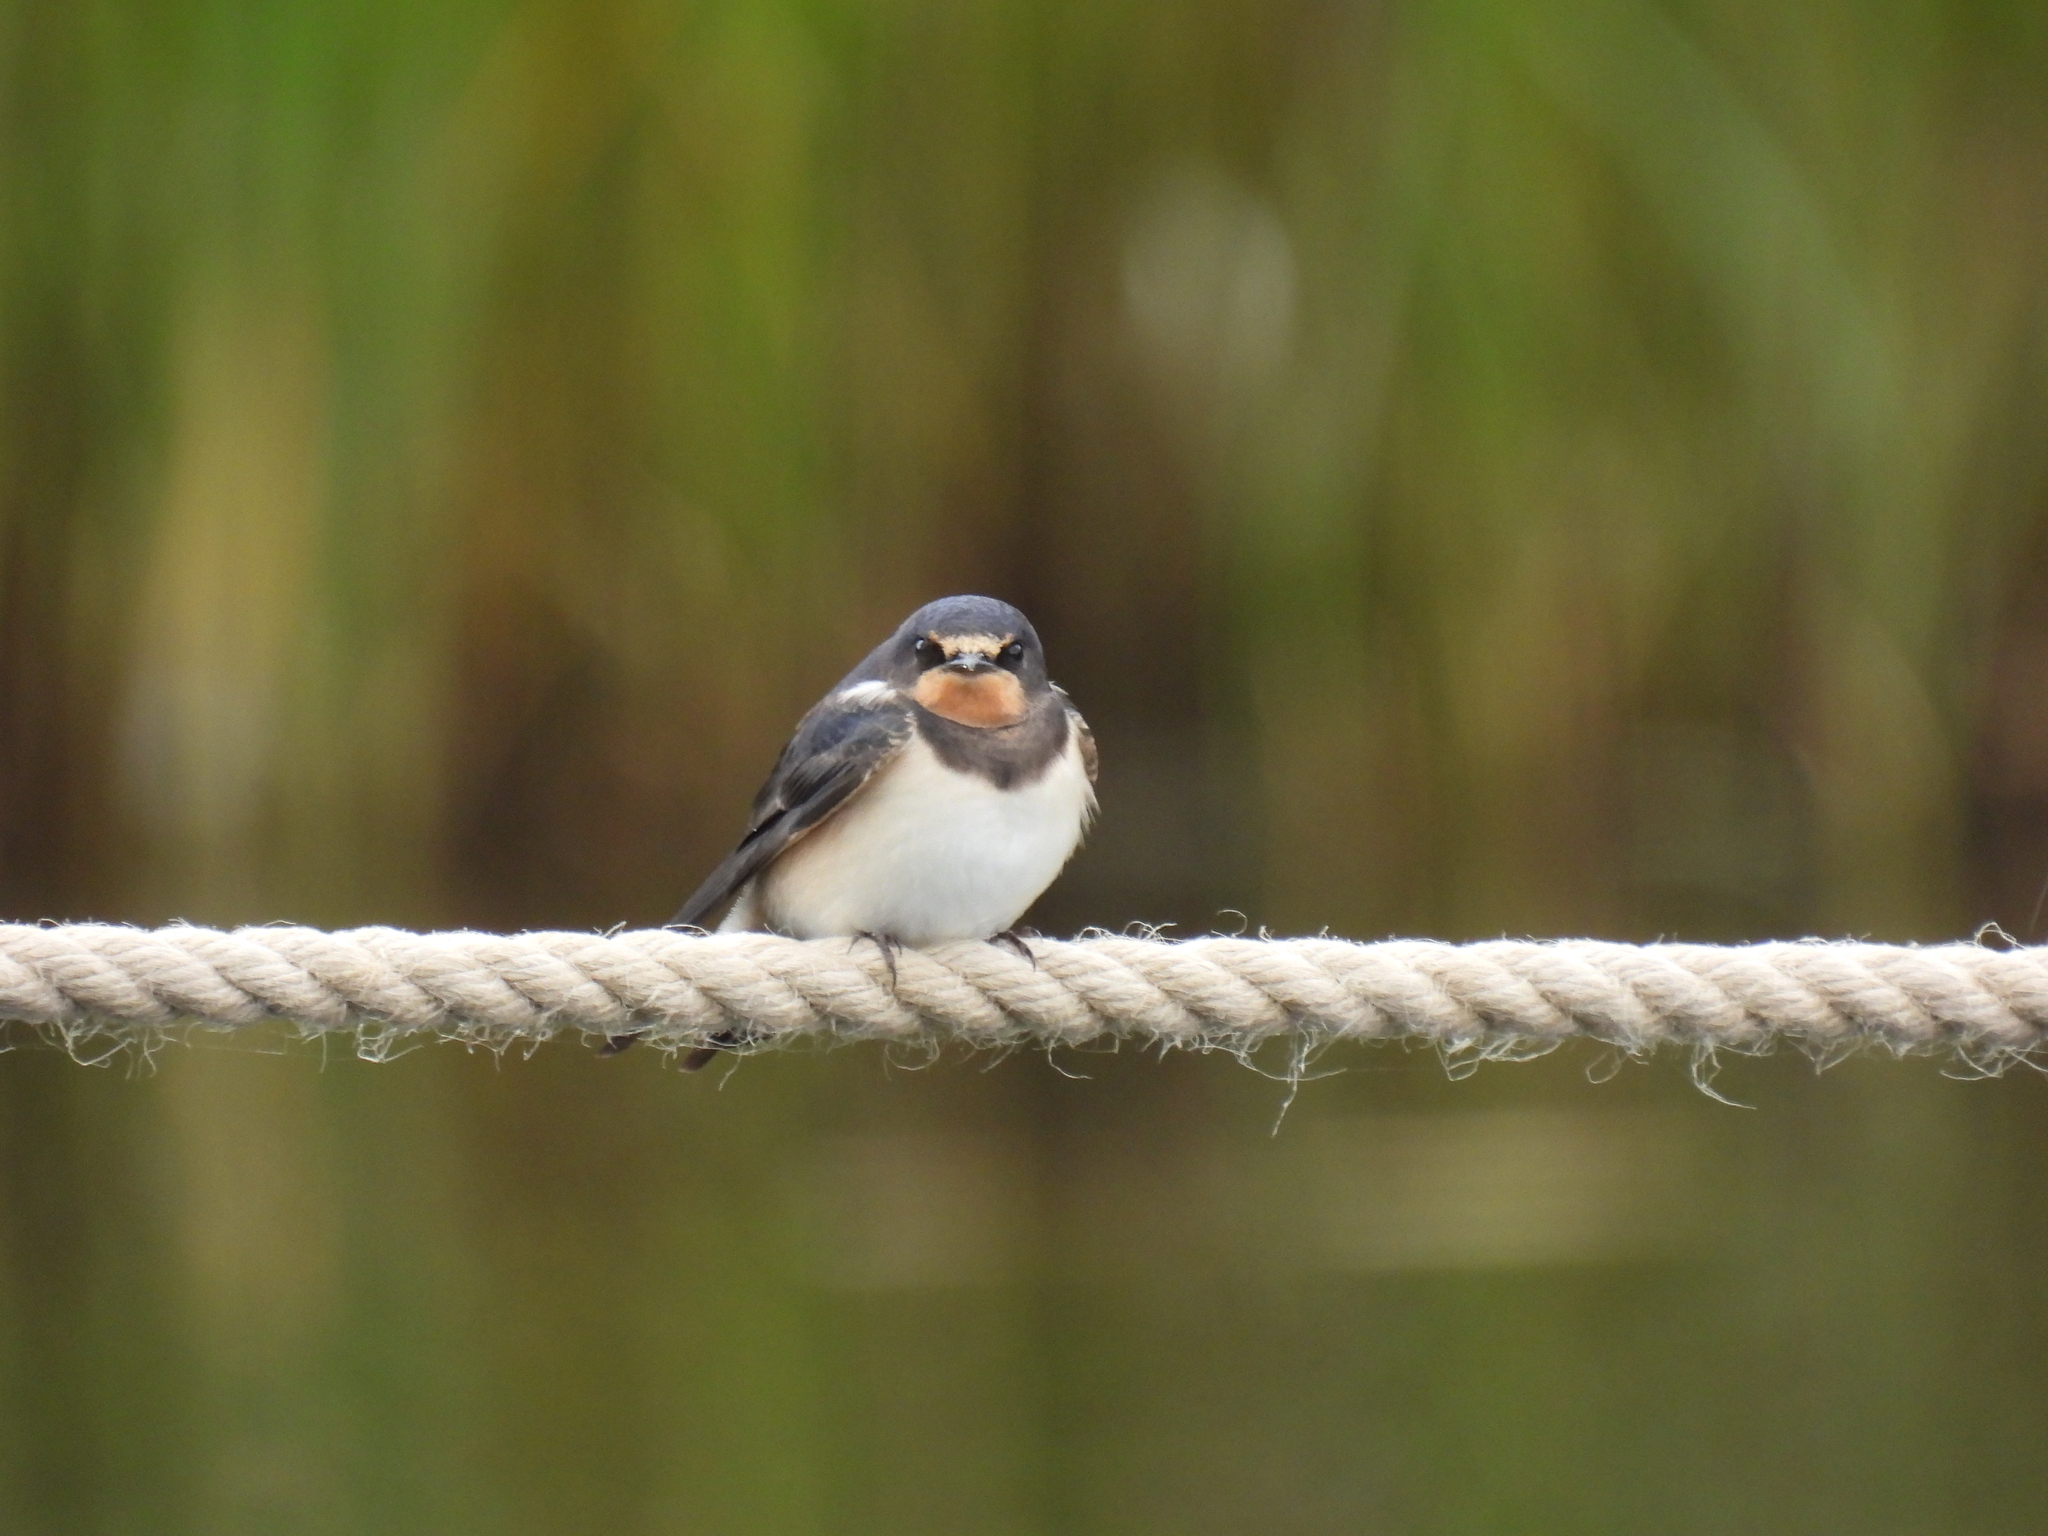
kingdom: Animalia
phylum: Chordata
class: Aves
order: Passeriformes
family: Hirundinidae
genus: Hirundo
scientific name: Hirundo rustica
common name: Barn swallow
